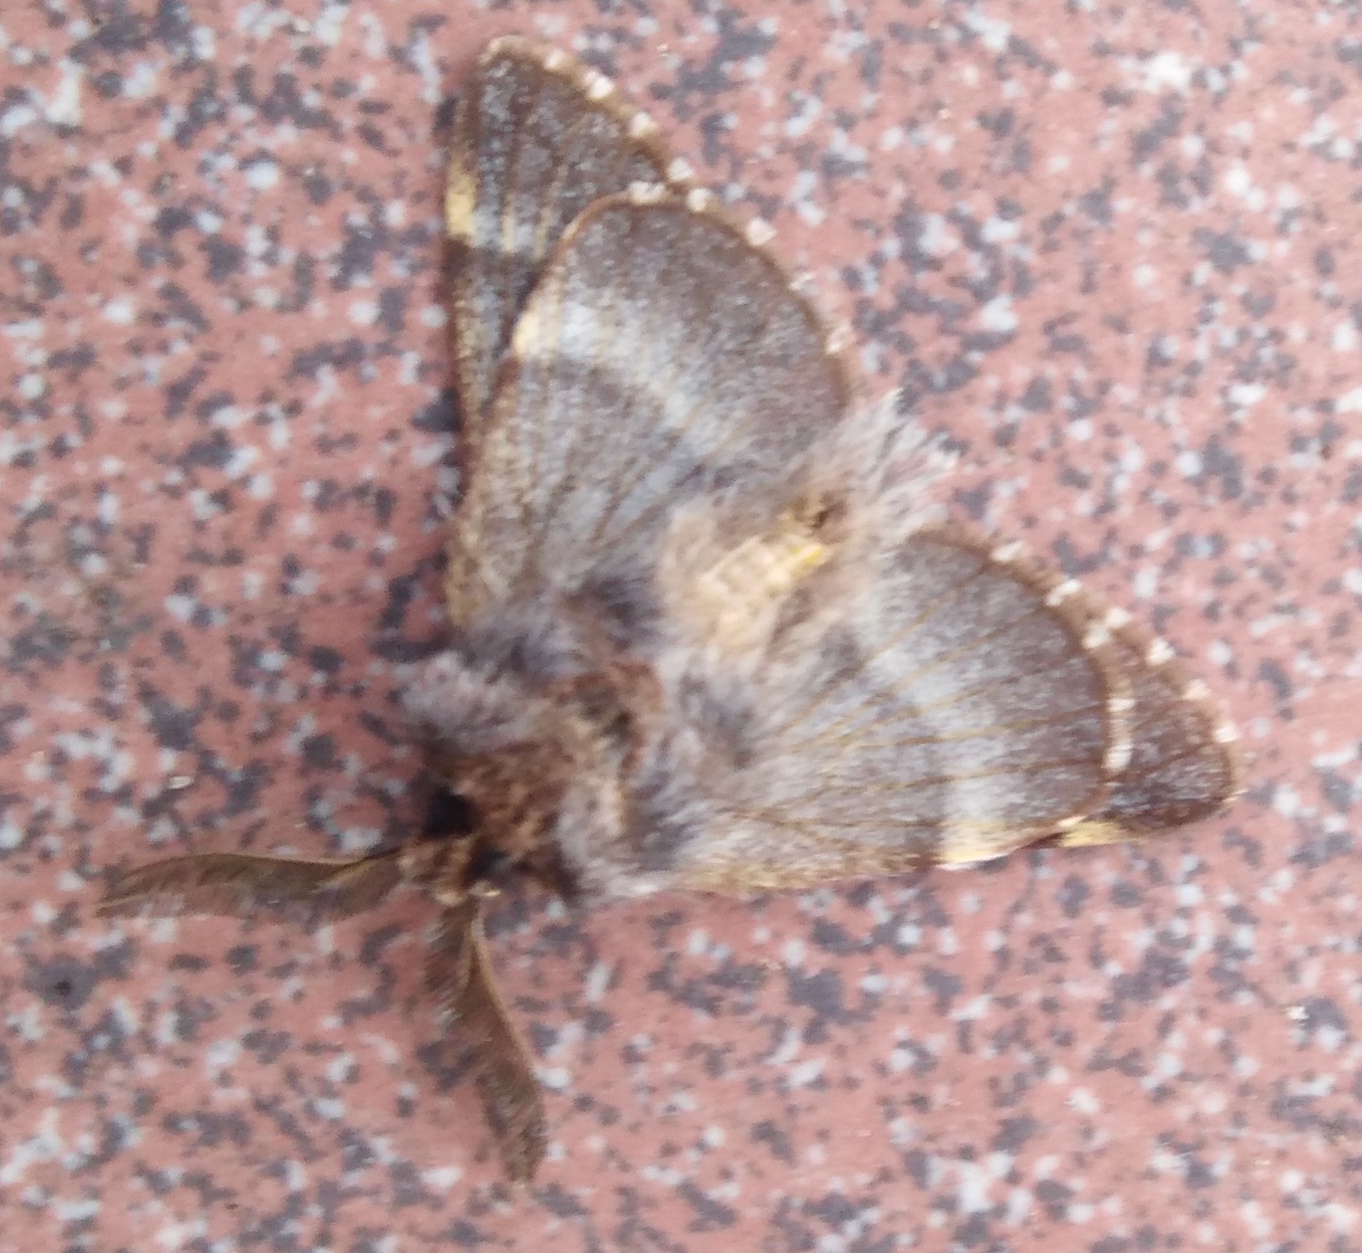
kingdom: Animalia
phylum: Arthropoda
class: Insecta
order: Lepidoptera
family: Lasiocampidae
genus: Poecilocampa
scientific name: Poecilocampa populi
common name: December moth
